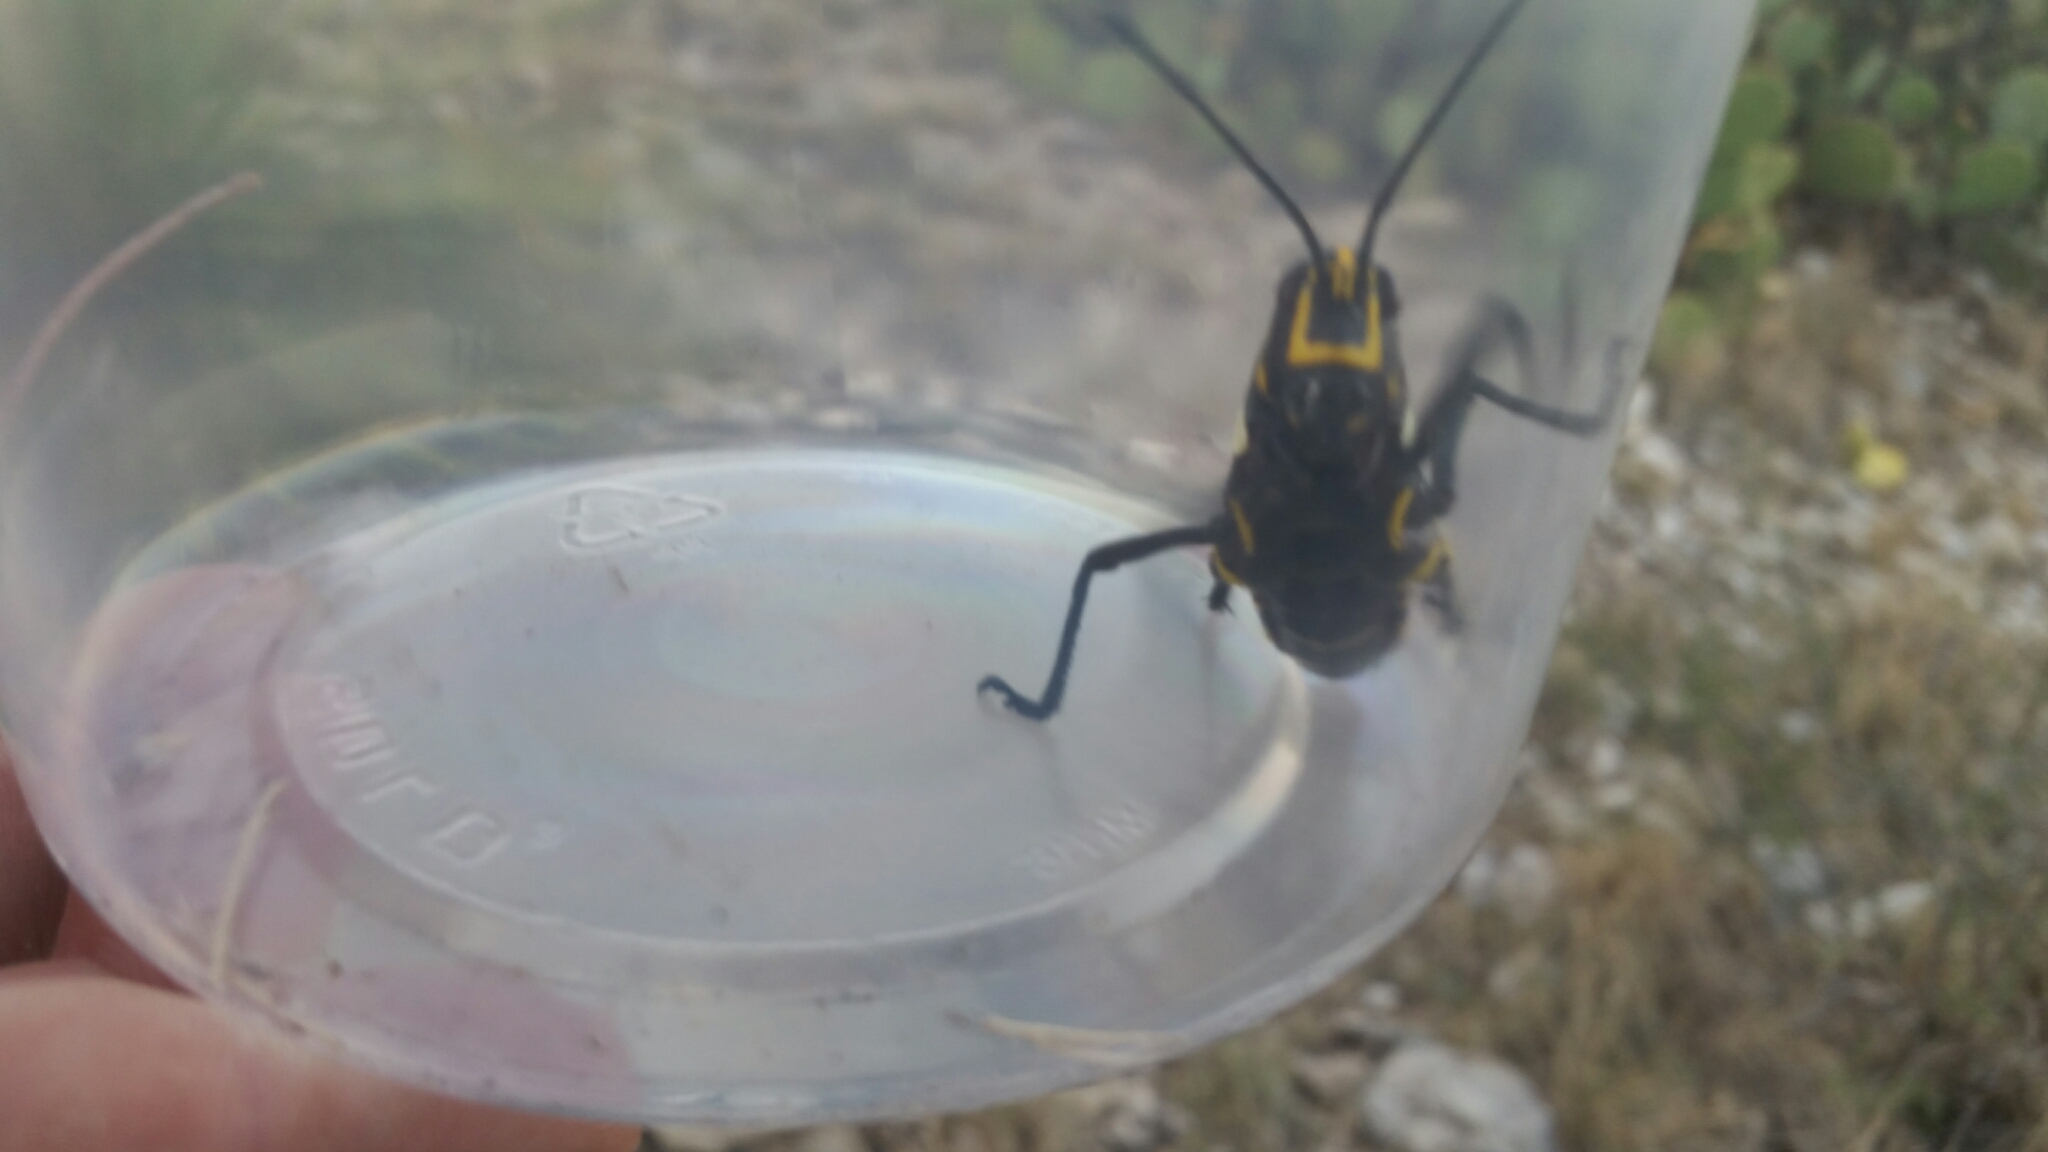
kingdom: Animalia
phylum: Arthropoda
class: Insecta
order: Orthoptera
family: Romaleidae
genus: Romalea
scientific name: Romalea
